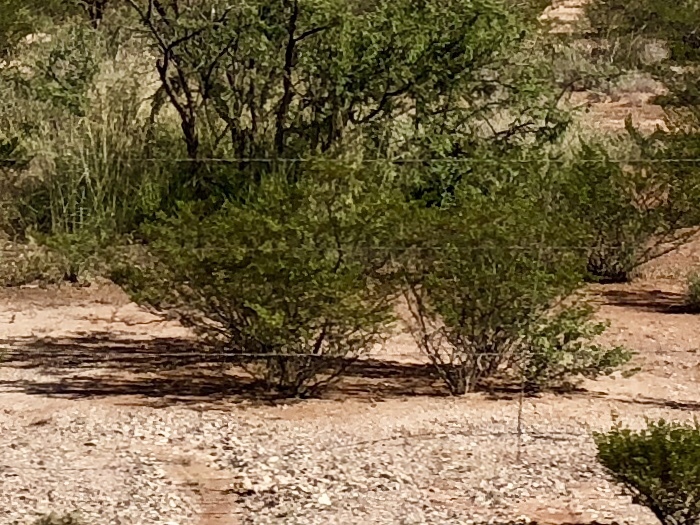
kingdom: Plantae
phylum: Tracheophyta
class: Magnoliopsida
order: Zygophyllales
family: Zygophyllaceae
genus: Larrea
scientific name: Larrea tridentata
